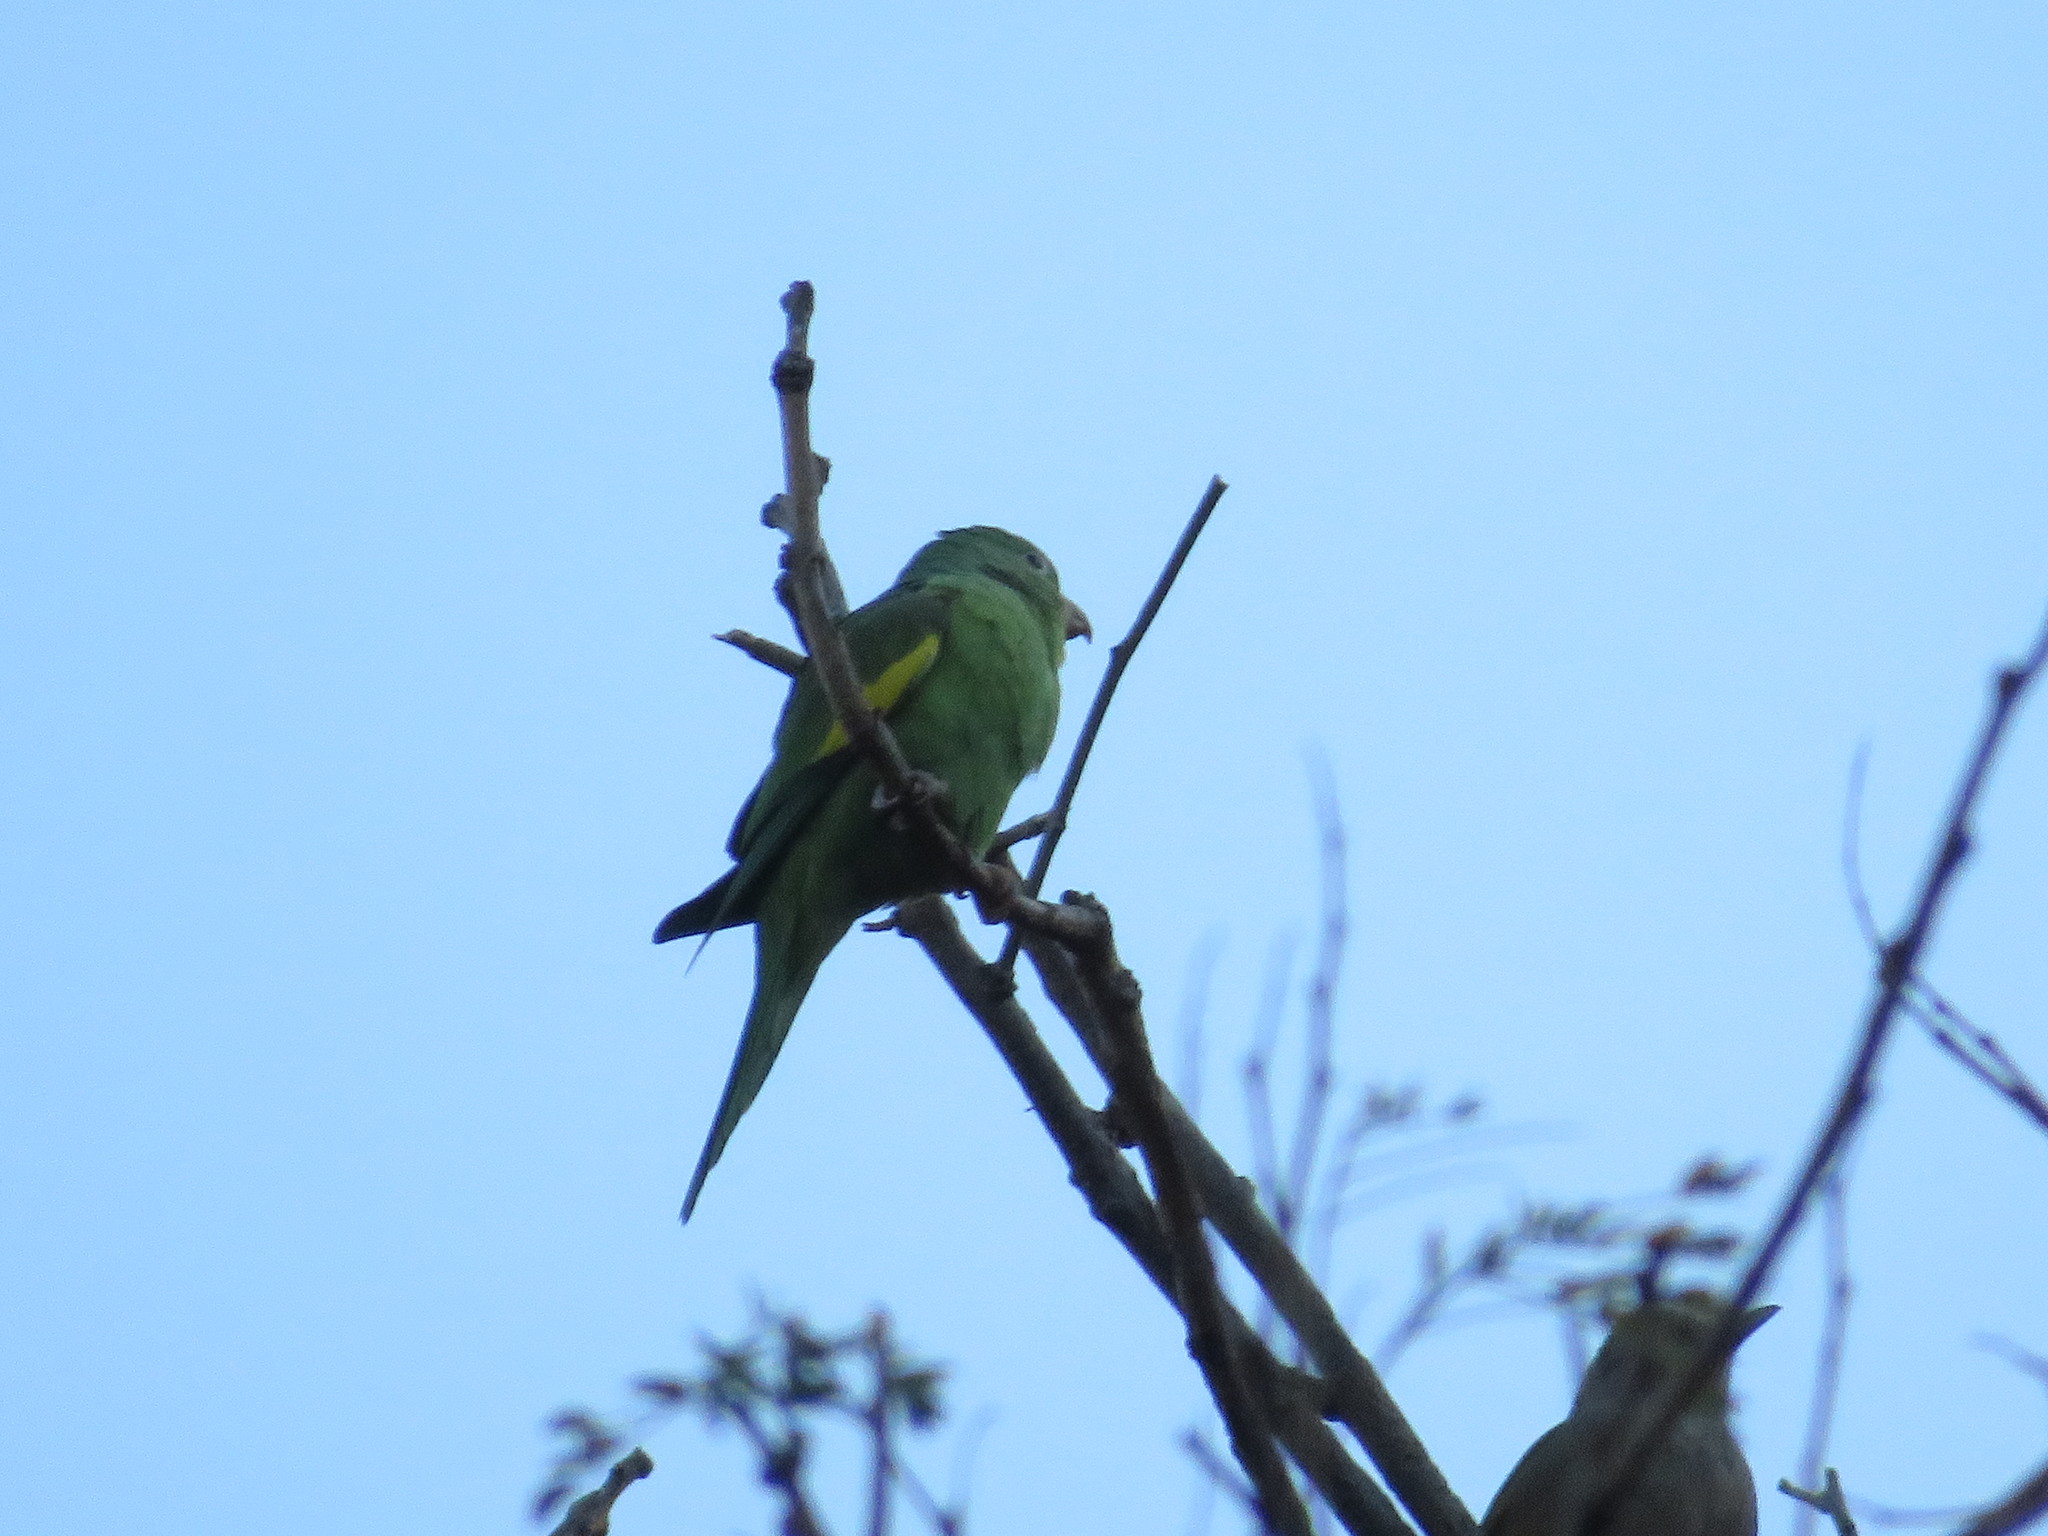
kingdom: Animalia
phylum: Chordata
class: Aves
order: Psittaciformes
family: Psittacidae
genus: Brotogeris
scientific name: Brotogeris chiriri
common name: Yellow-chevroned parakeet
